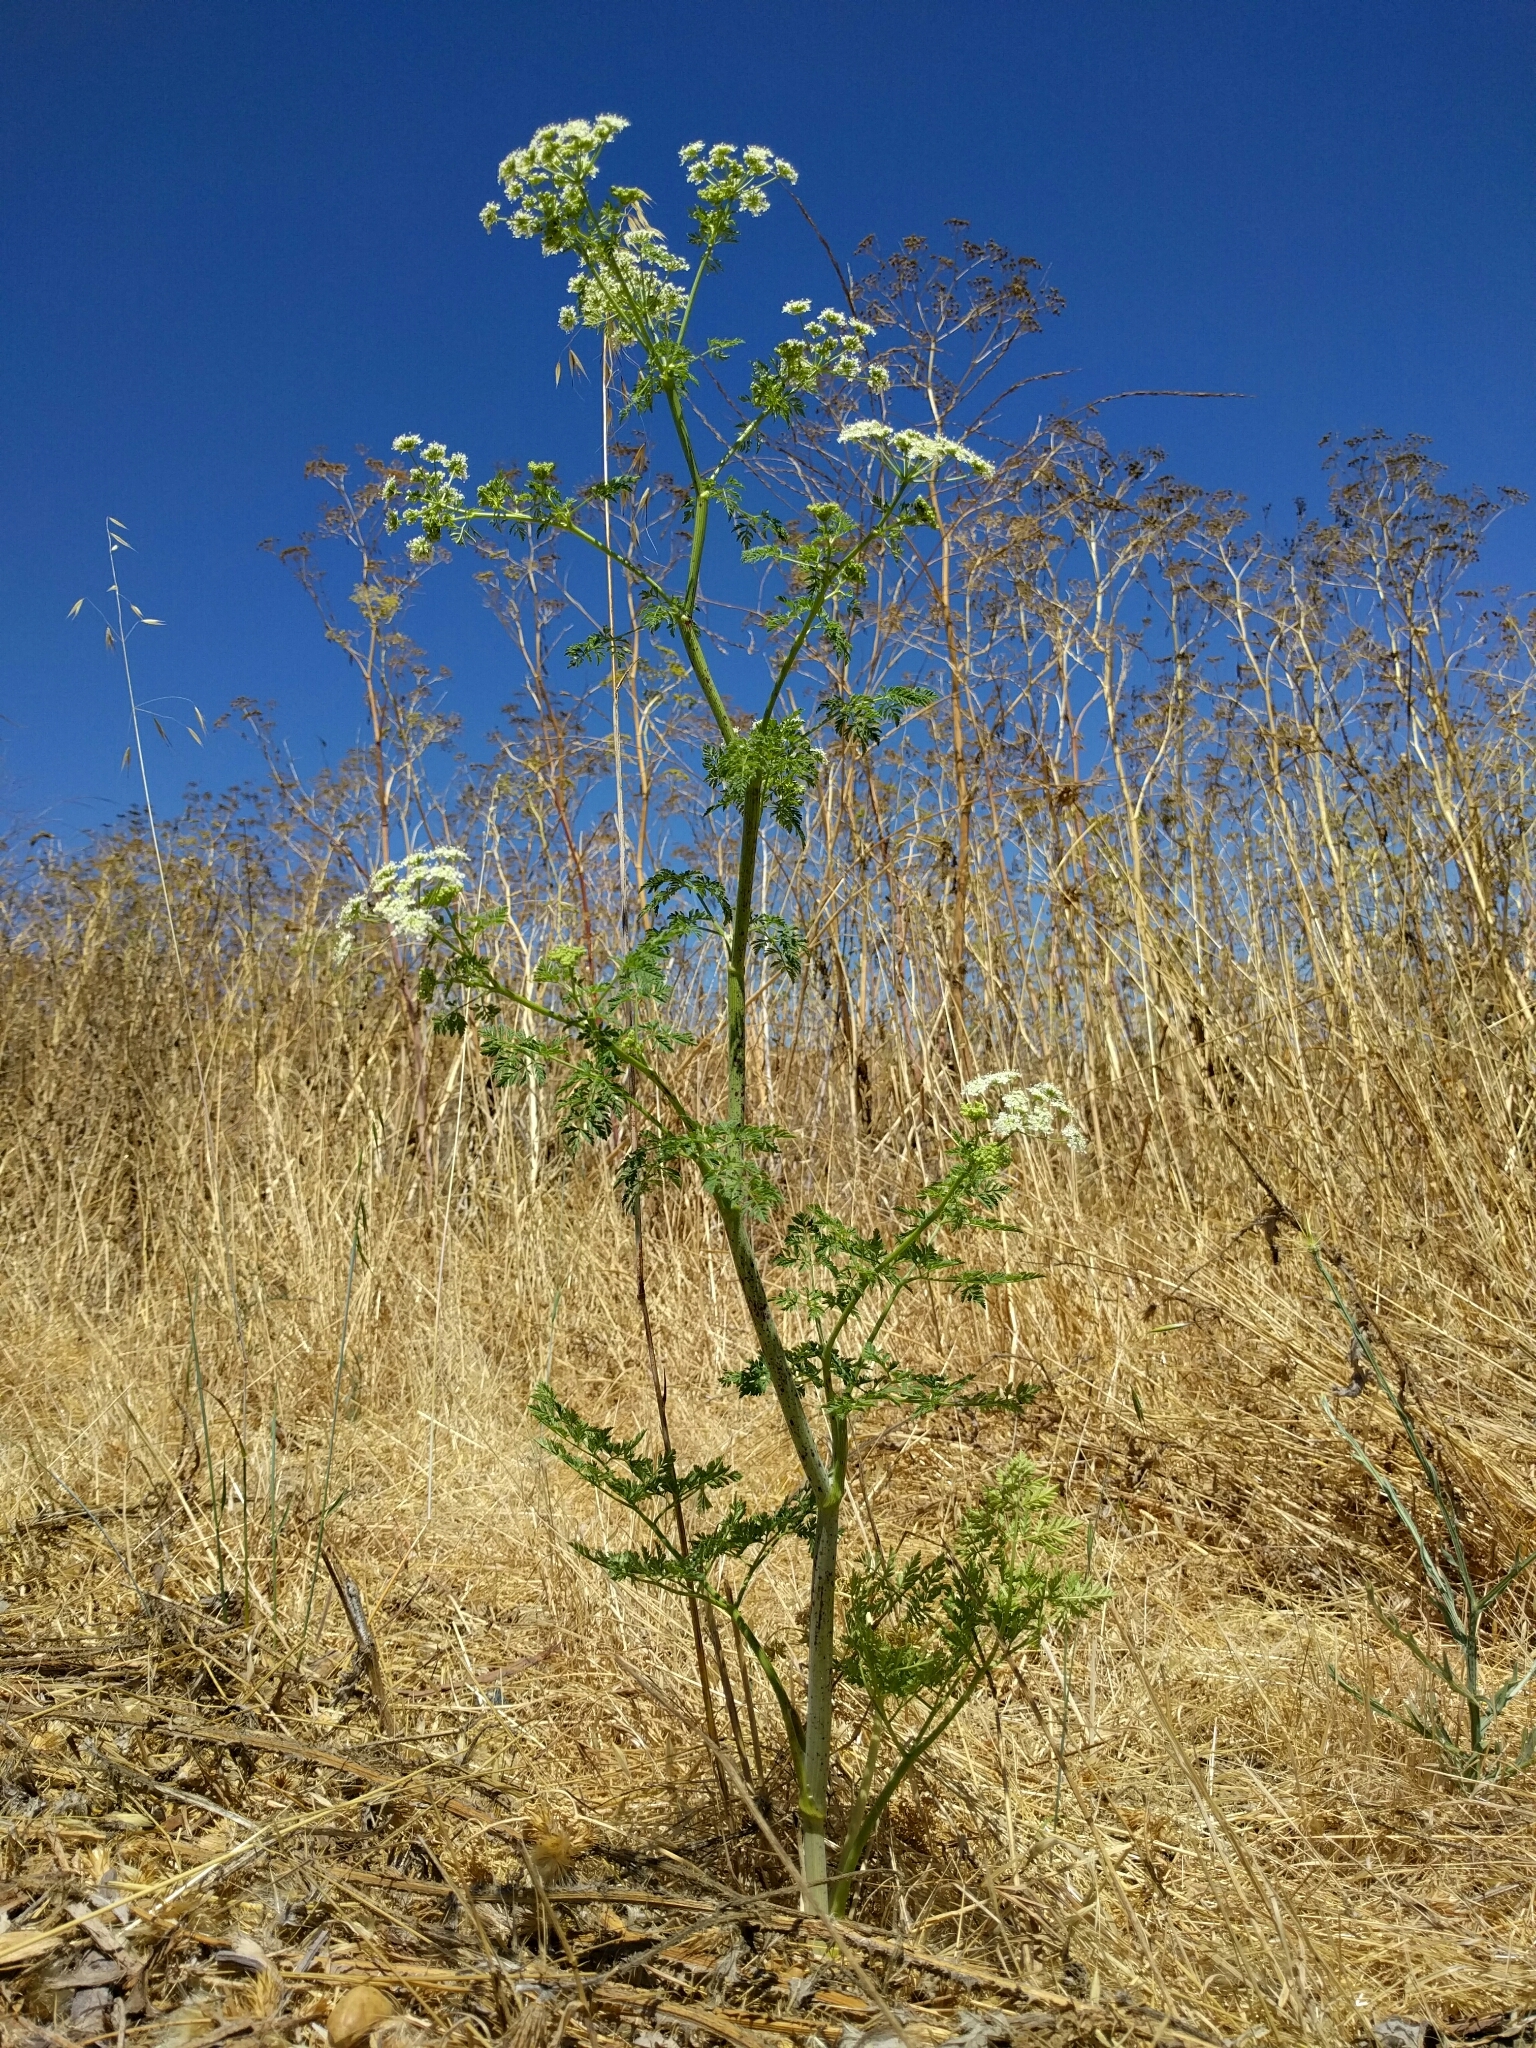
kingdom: Plantae
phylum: Tracheophyta
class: Magnoliopsida
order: Apiales
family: Apiaceae
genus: Conium
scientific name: Conium maculatum
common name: Hemlock
